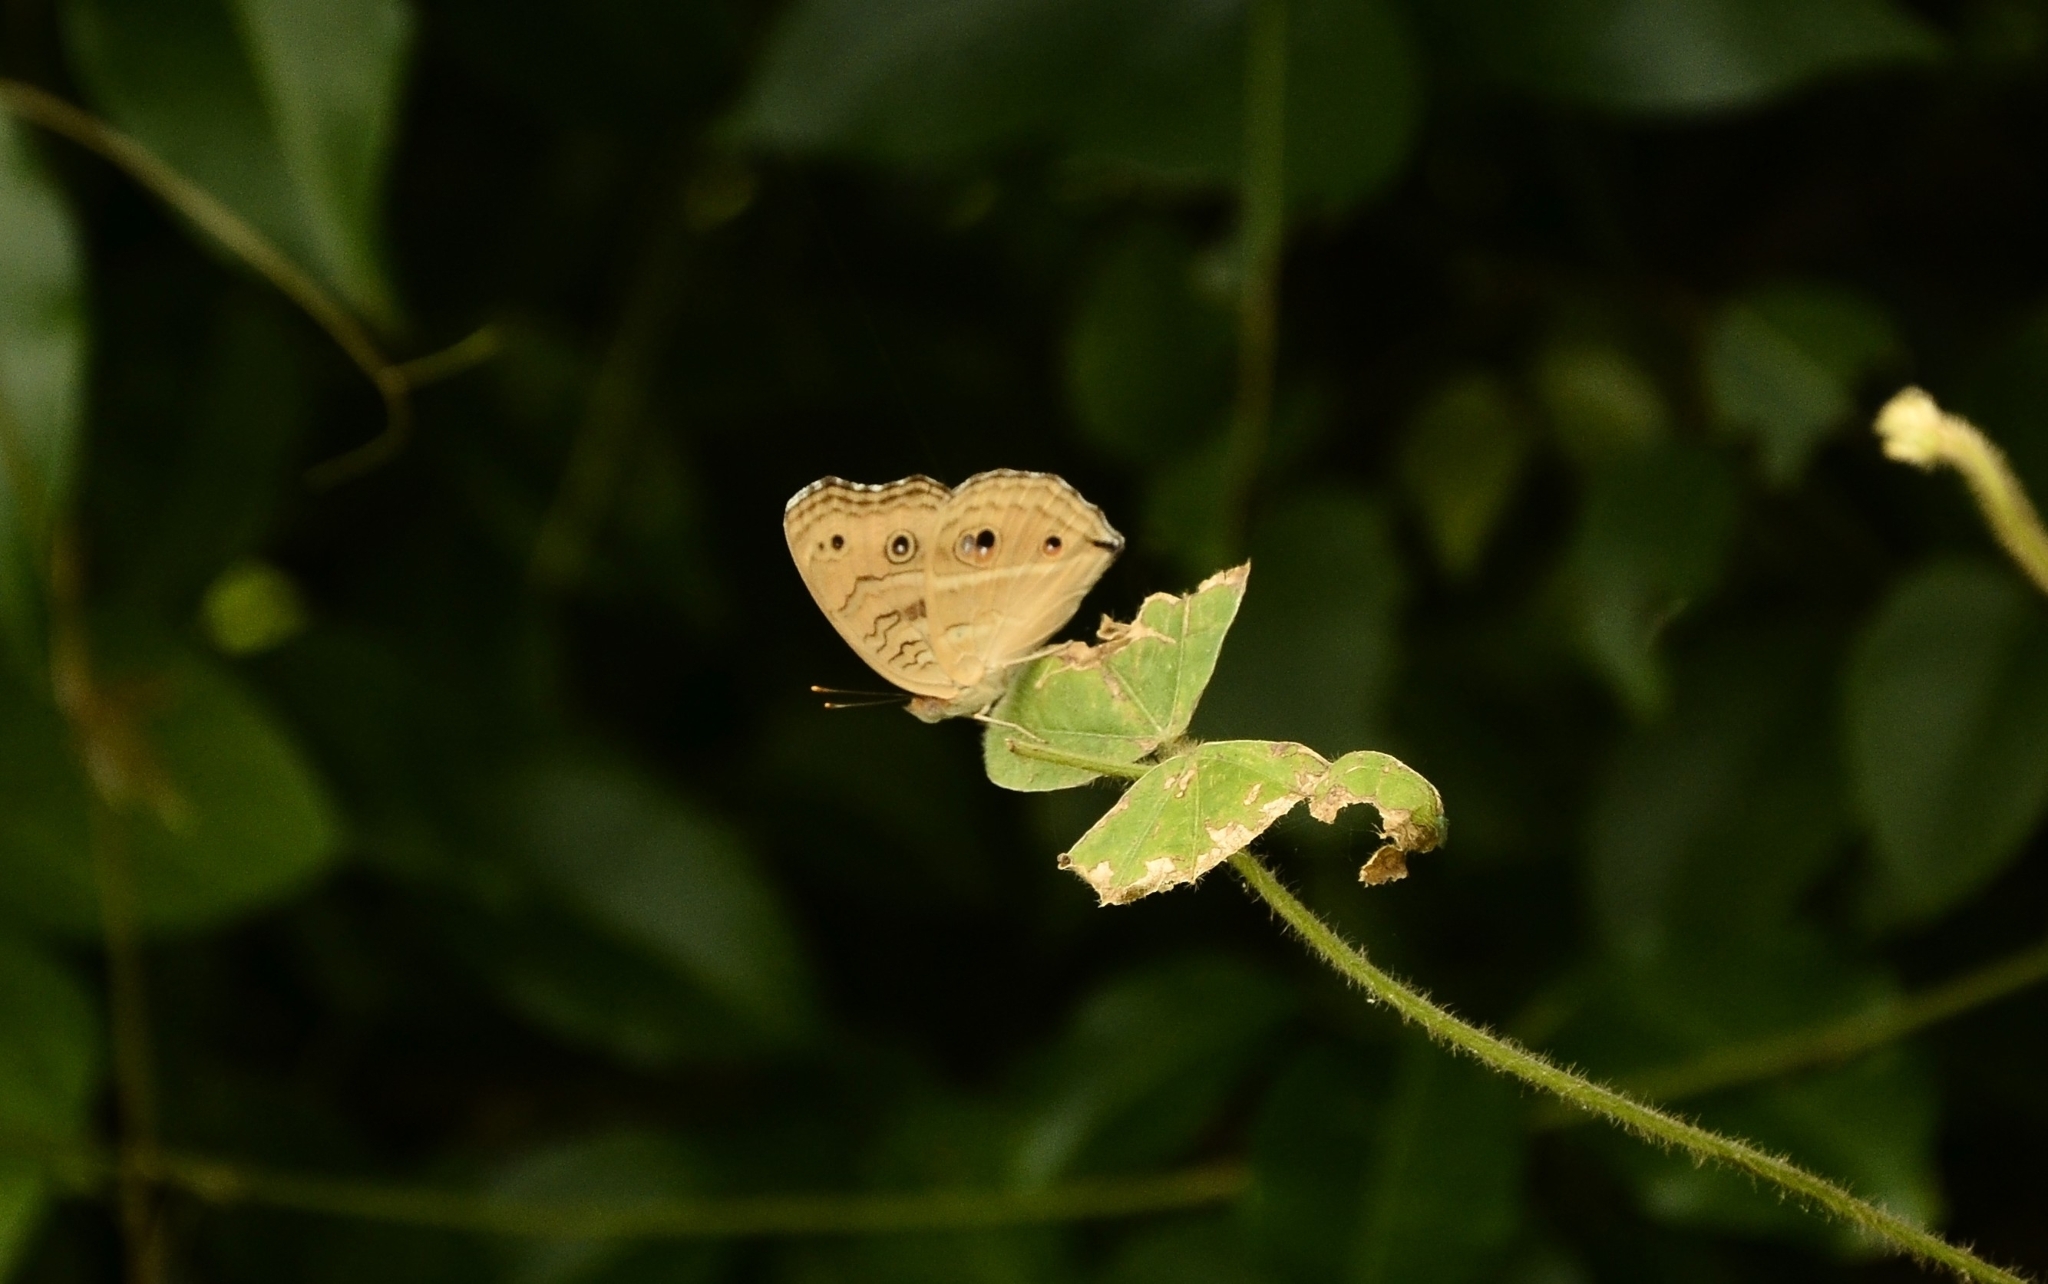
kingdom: Animalia
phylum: Arthropoda
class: Insecta
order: Lepidoptera
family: Nymphalidae
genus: Junonia
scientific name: Junonia almana
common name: Peacock pansy
